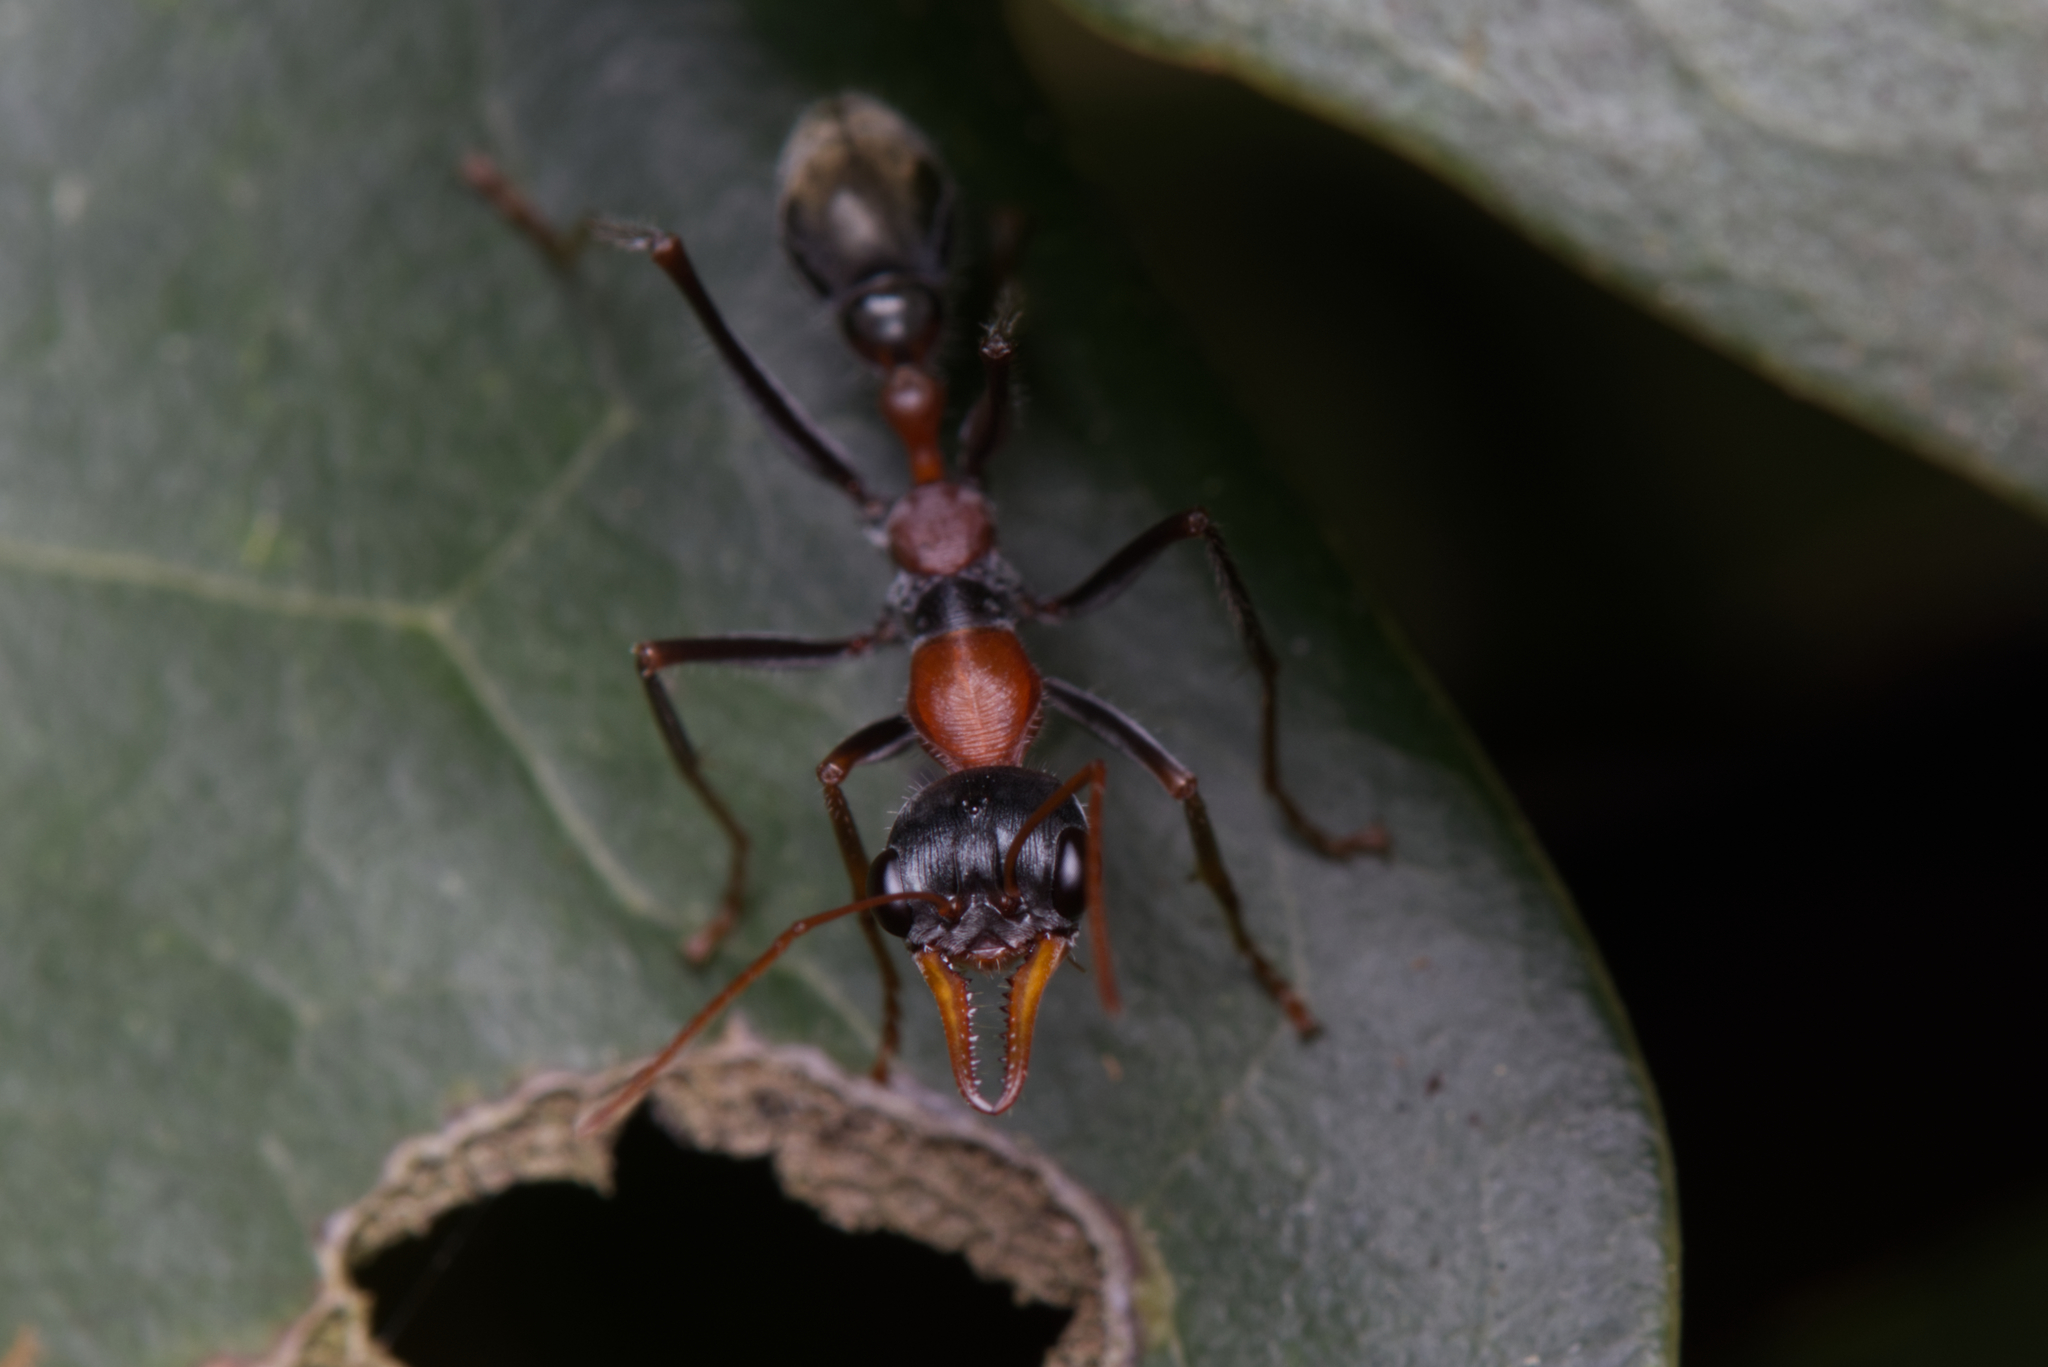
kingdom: Animalia
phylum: Arthropoda
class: Insecta
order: Hymenoptera
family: Formicidae
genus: Myrmecia
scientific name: Myrmecia nigrocincta
